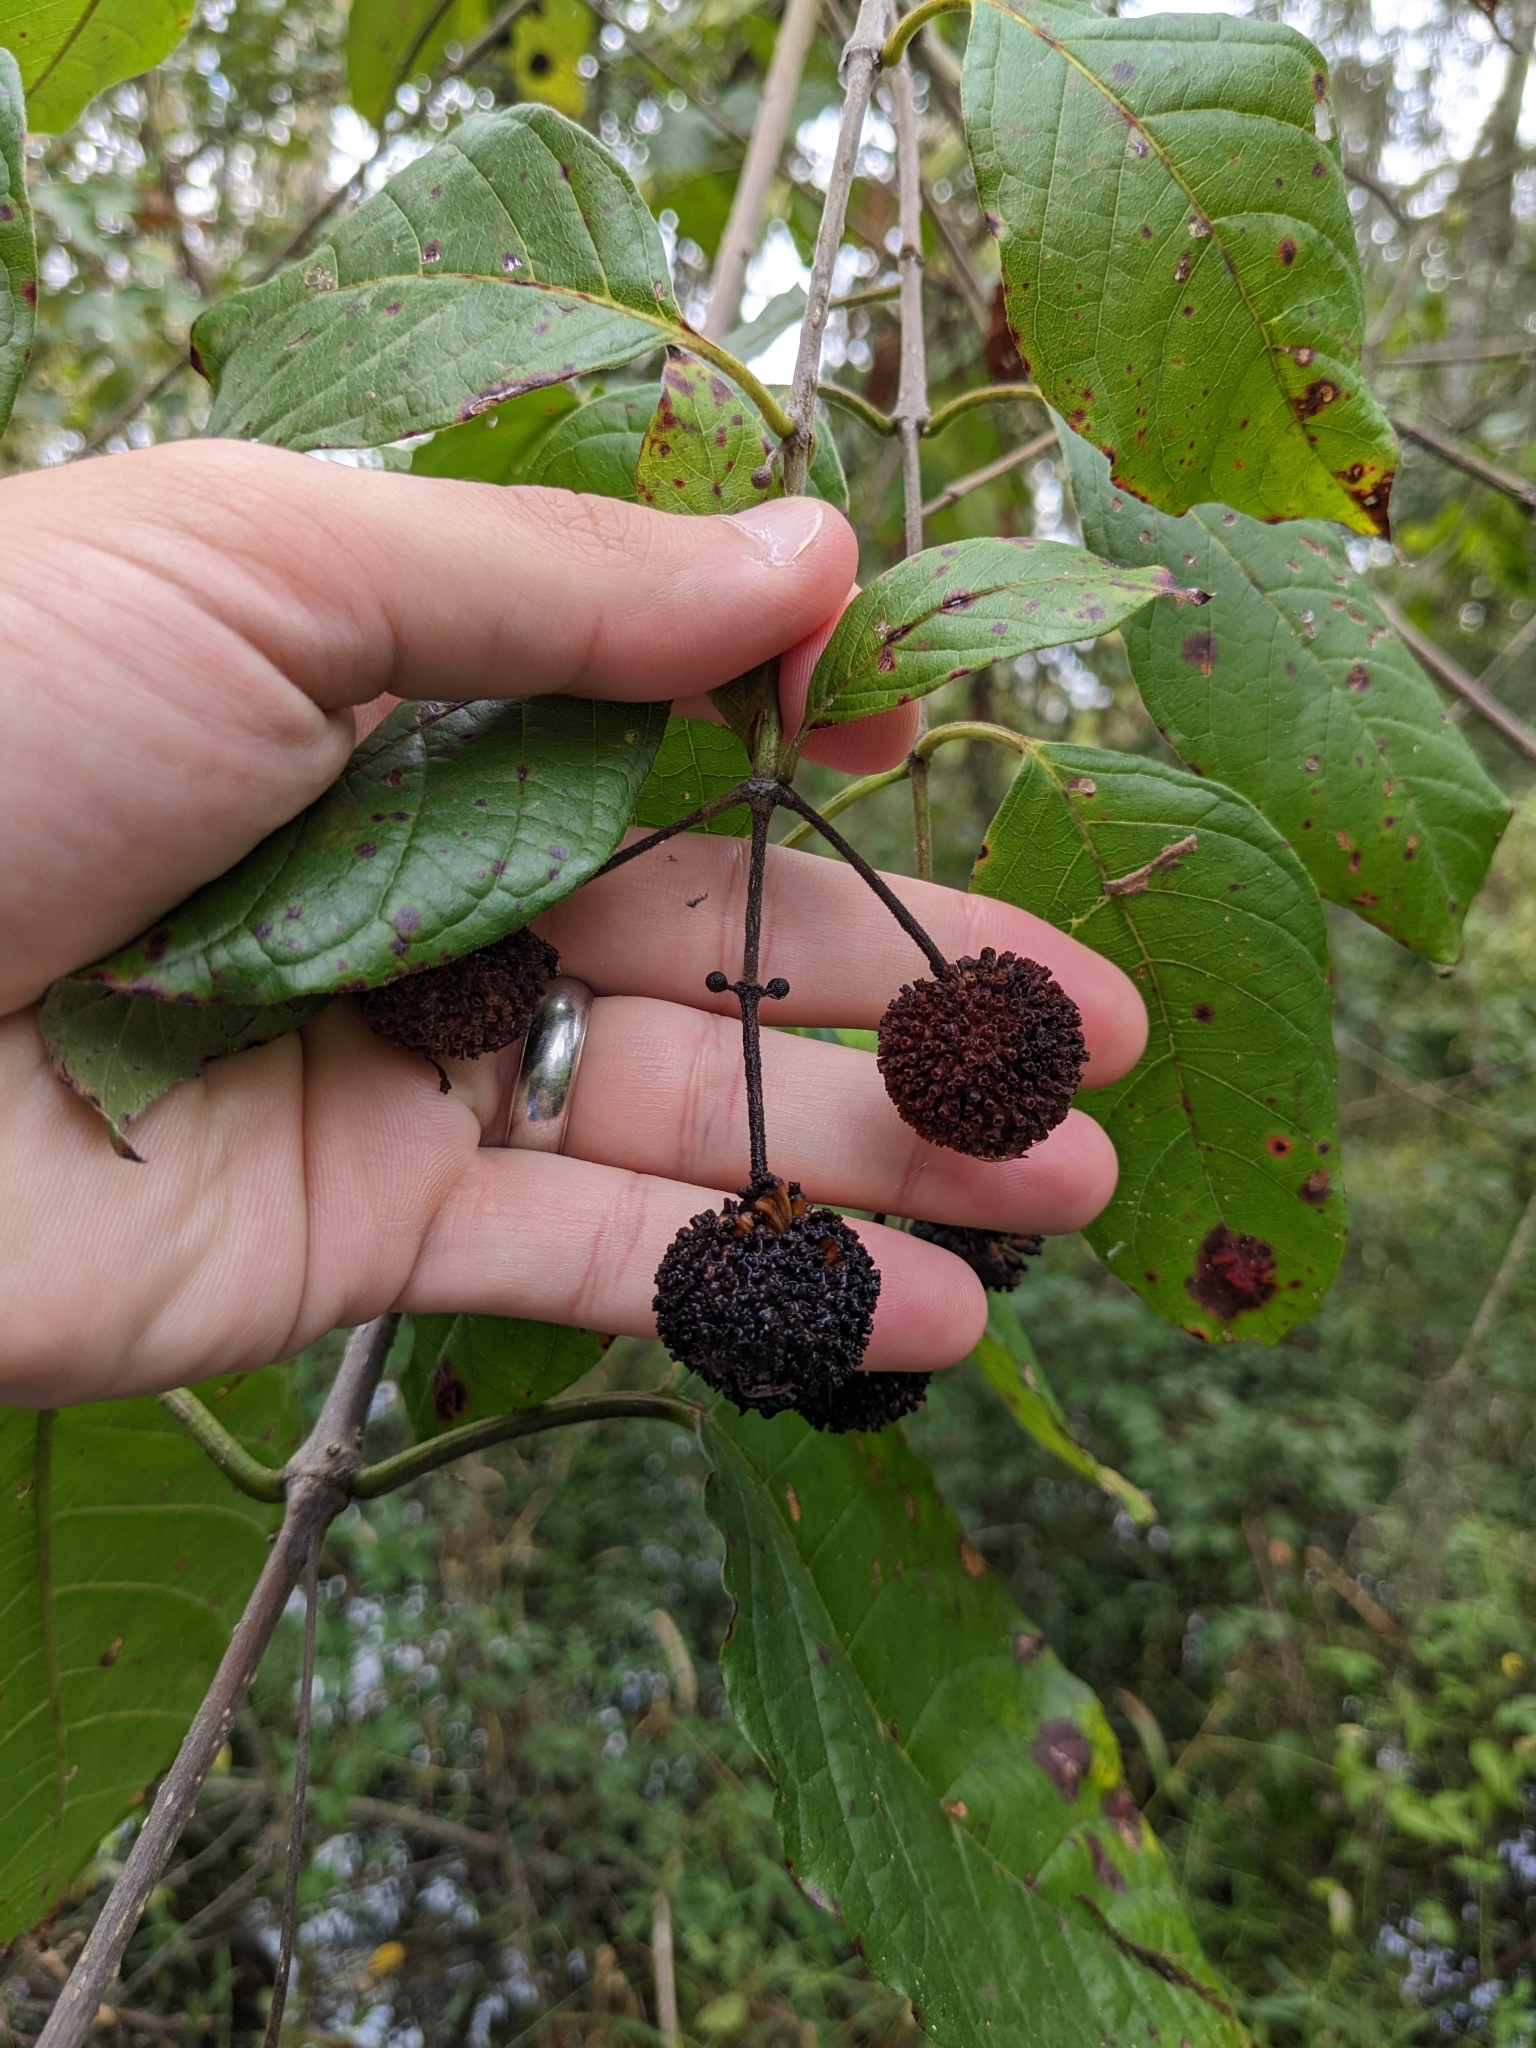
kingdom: Plantae
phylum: Tracheophyta
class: Magnoliopsida
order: Gentianales
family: Rubiaceae
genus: Cephalanthus
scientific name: Cephalanthus occidentalis
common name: Button-willow
